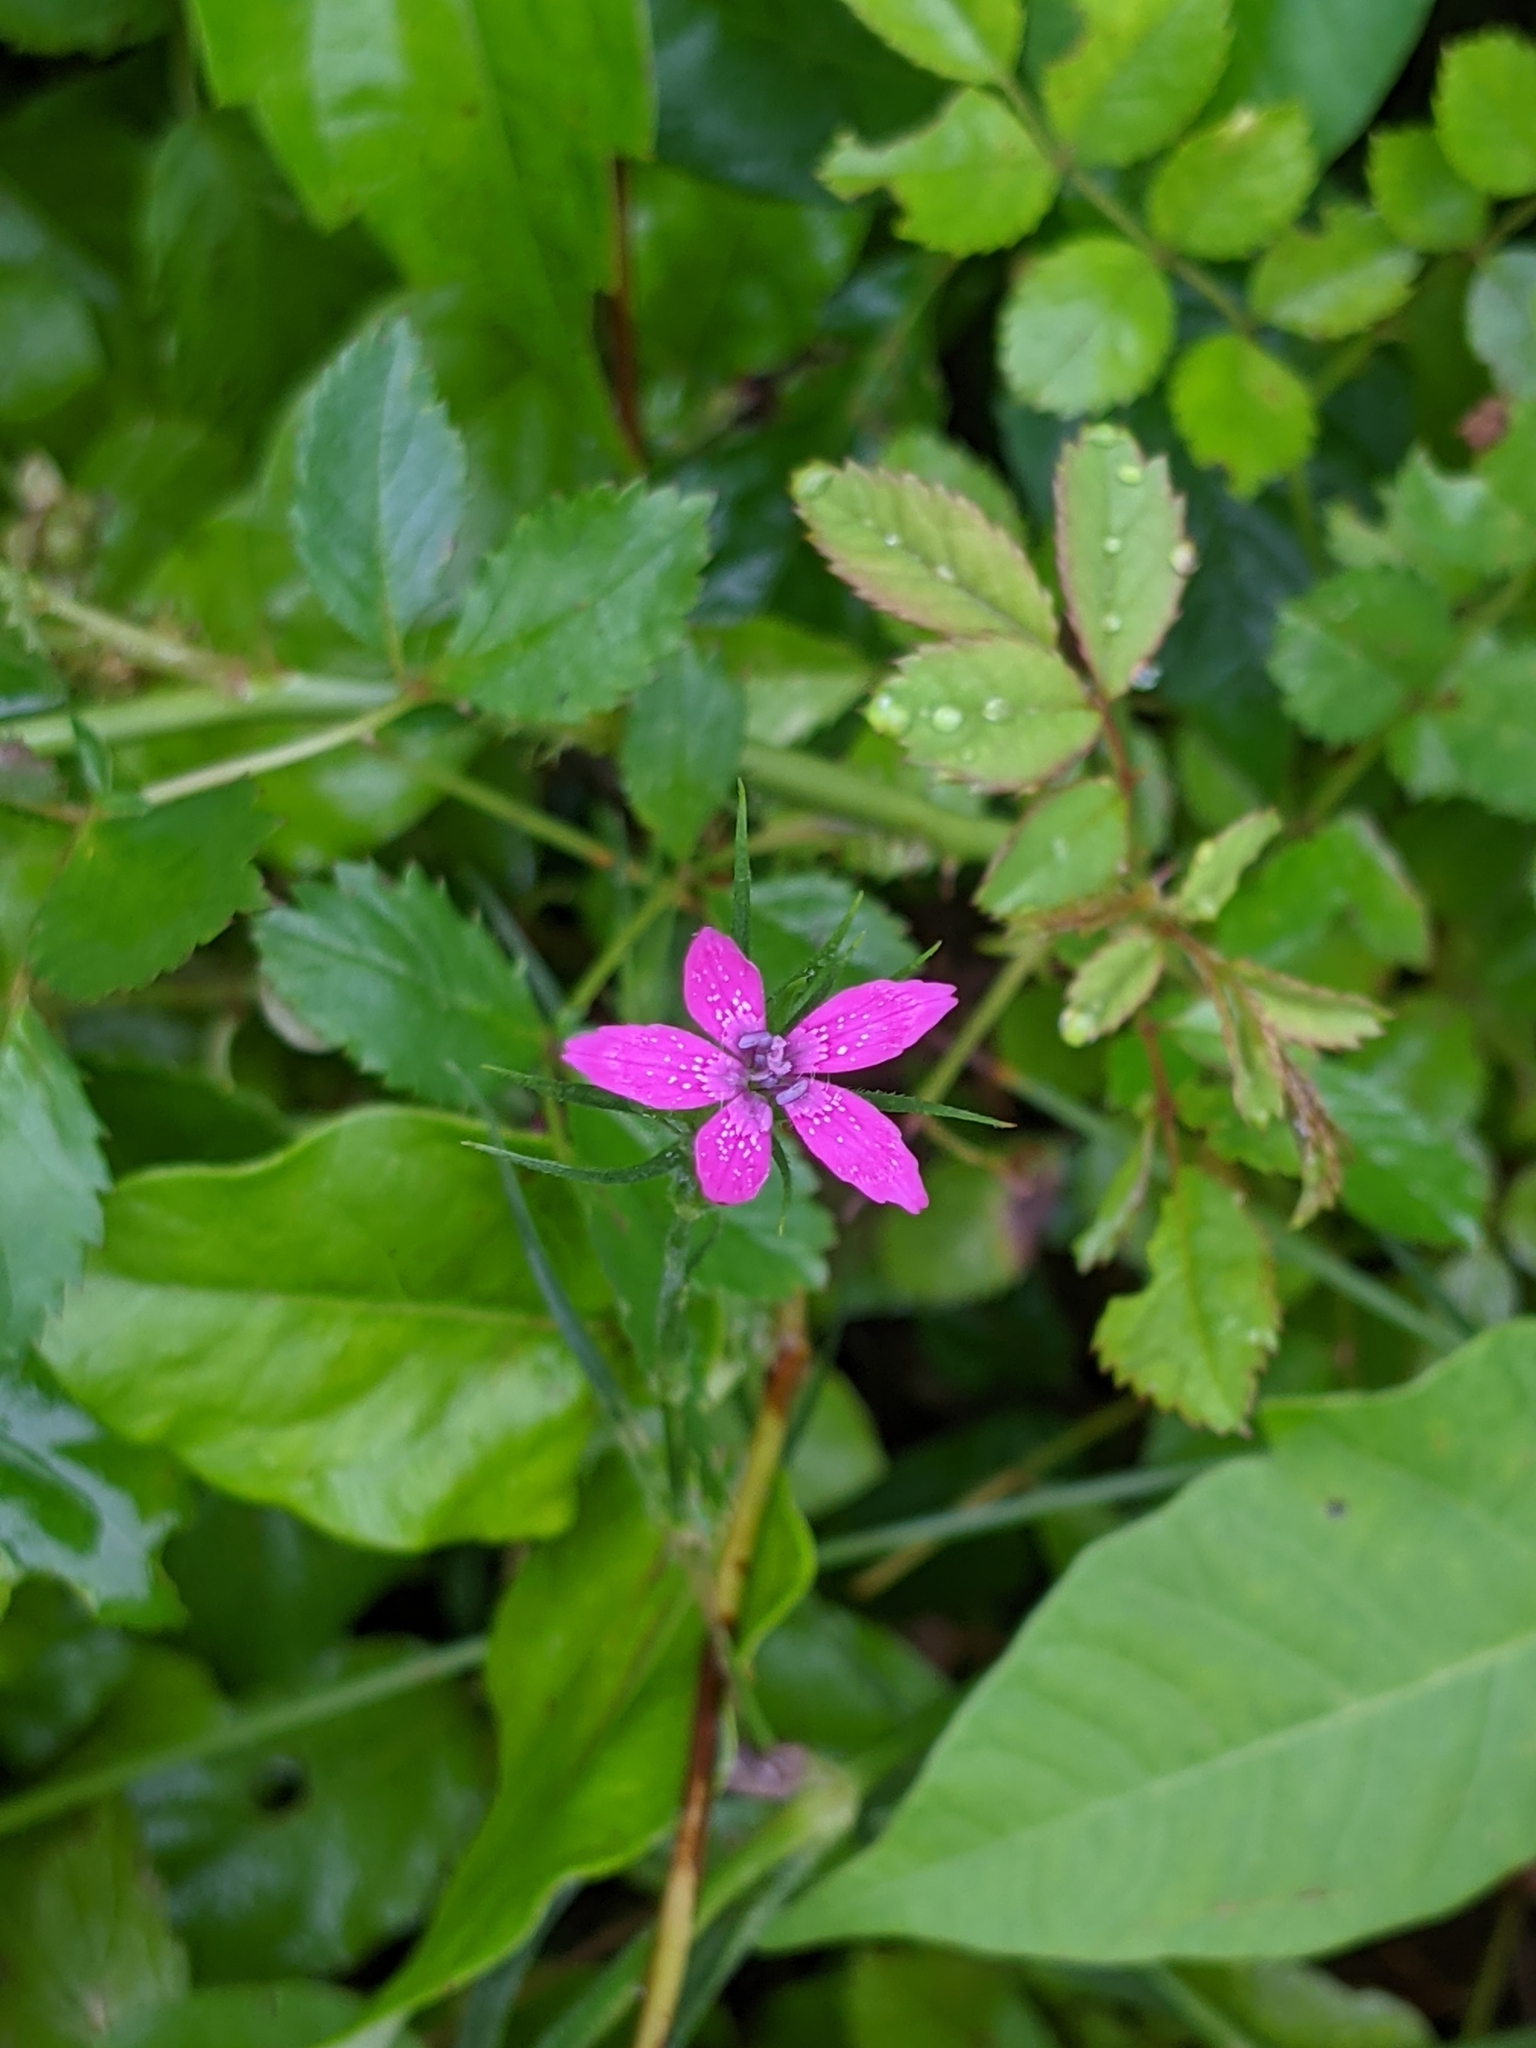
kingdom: Plantae
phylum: Tracheophyta
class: Magnoliopsida
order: Caryophyllales
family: Caryophyllaceae
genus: Dianthus
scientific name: Dianthus armeria
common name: Deptford pink
